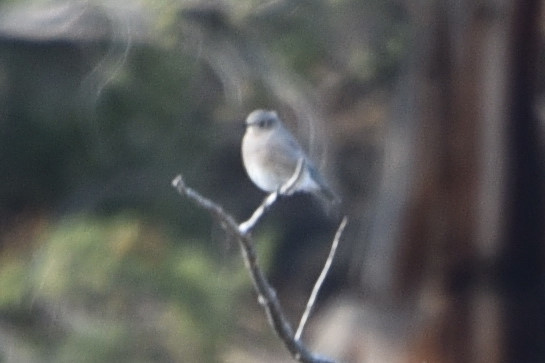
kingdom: Animalia
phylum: Chordata
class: Aves
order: Passeriformes
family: Turdidae
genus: Sialia
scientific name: Sialia currucoides
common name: Mountain bluebird
